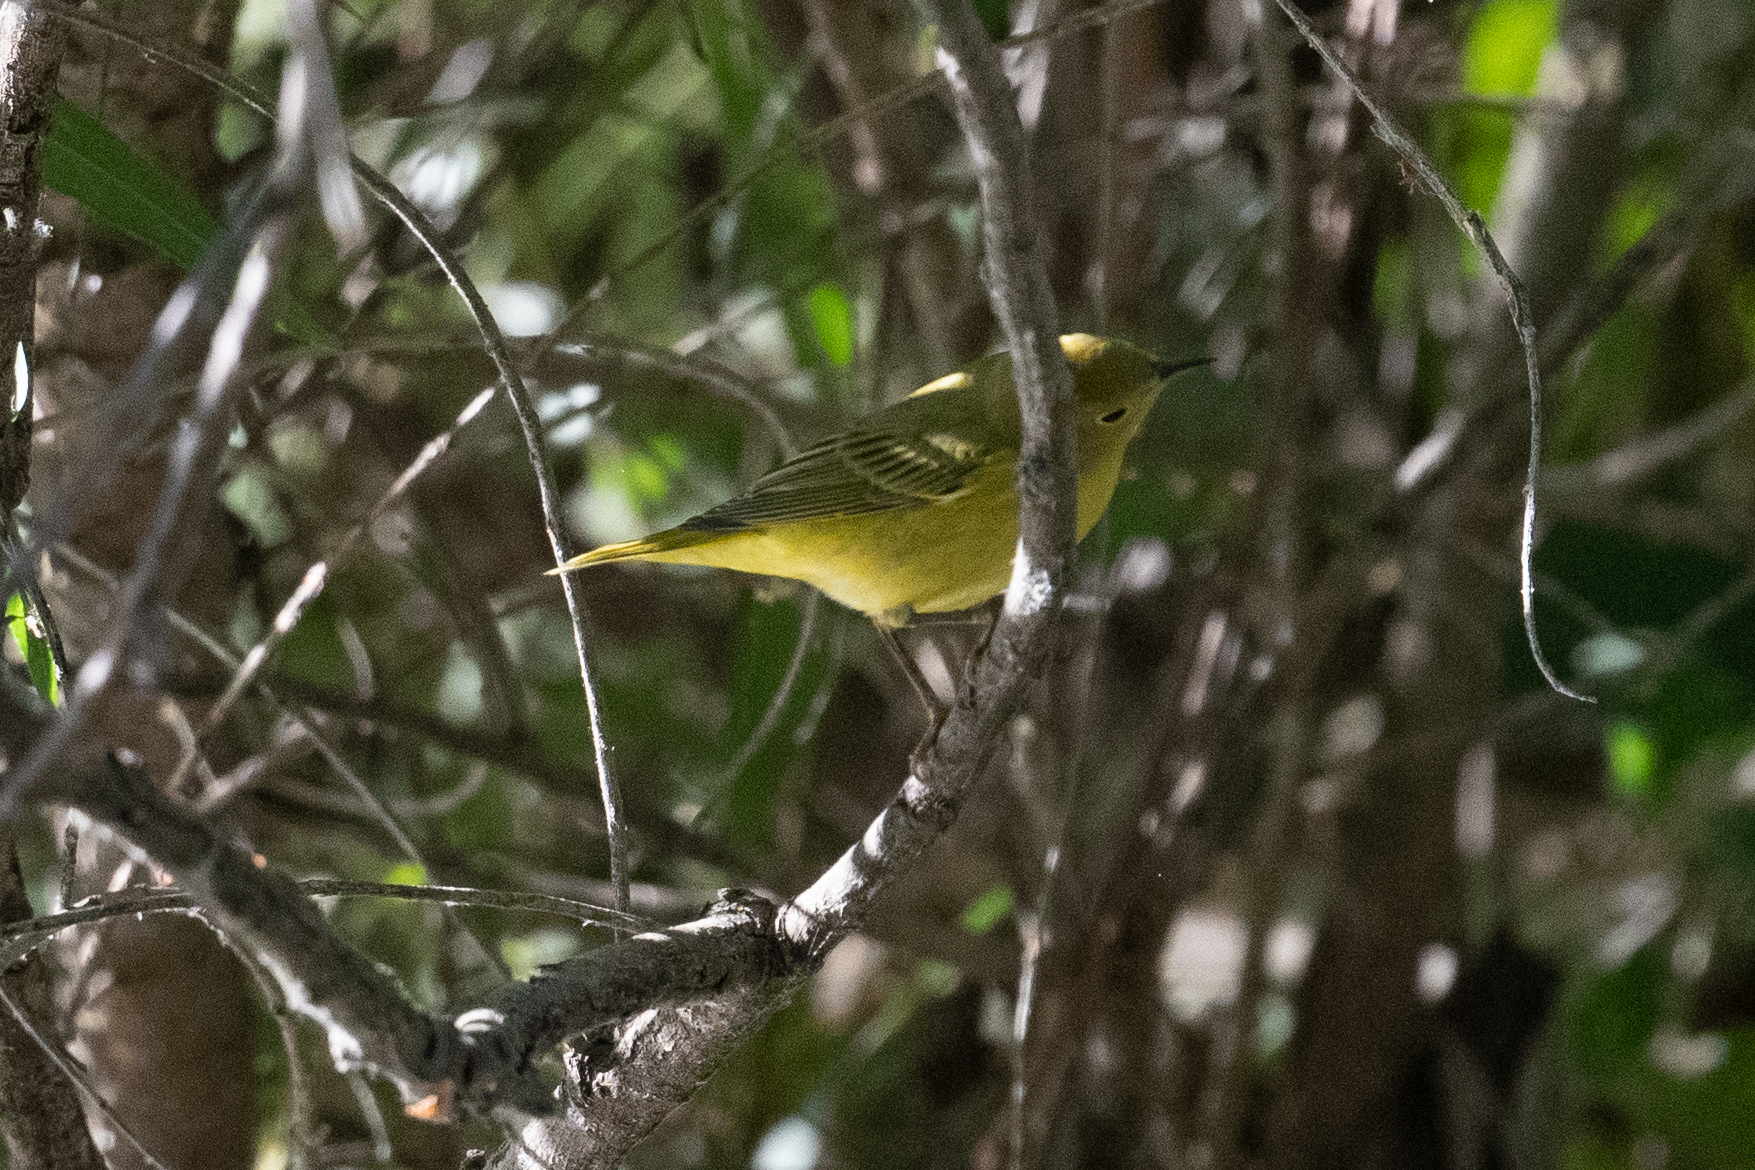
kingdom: Animalia
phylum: Chordata
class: Aves
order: Passeriformes
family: Parulidae
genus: Setophaga
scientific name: Setophaga petechia
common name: Yellow warbler
